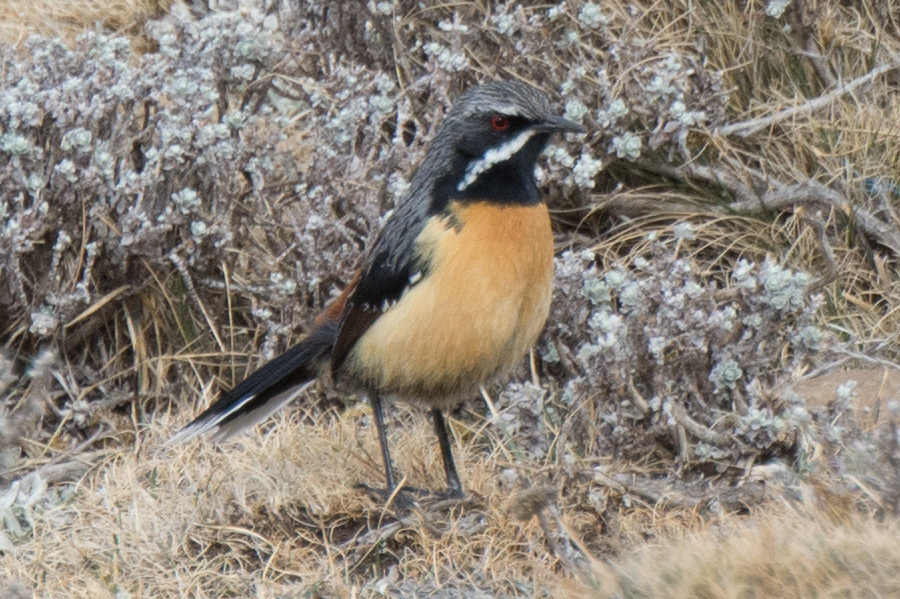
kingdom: Animalia
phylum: Chordata
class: Aves
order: Passeriformes
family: Chaetopidae
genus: Chaetops
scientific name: Chaetops aurantius
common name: Drakensberg rockjumper
